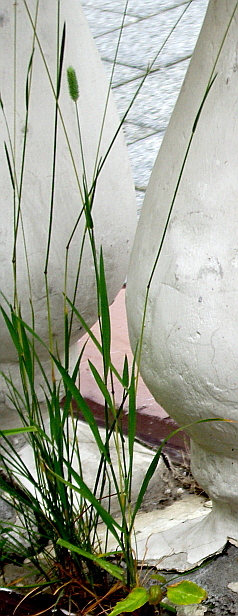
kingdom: Plantae
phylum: Tracheophyta
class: Liliopsida
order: Poales
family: Poaceae
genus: Phleum
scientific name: Phleum pratense
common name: Timothy grass
